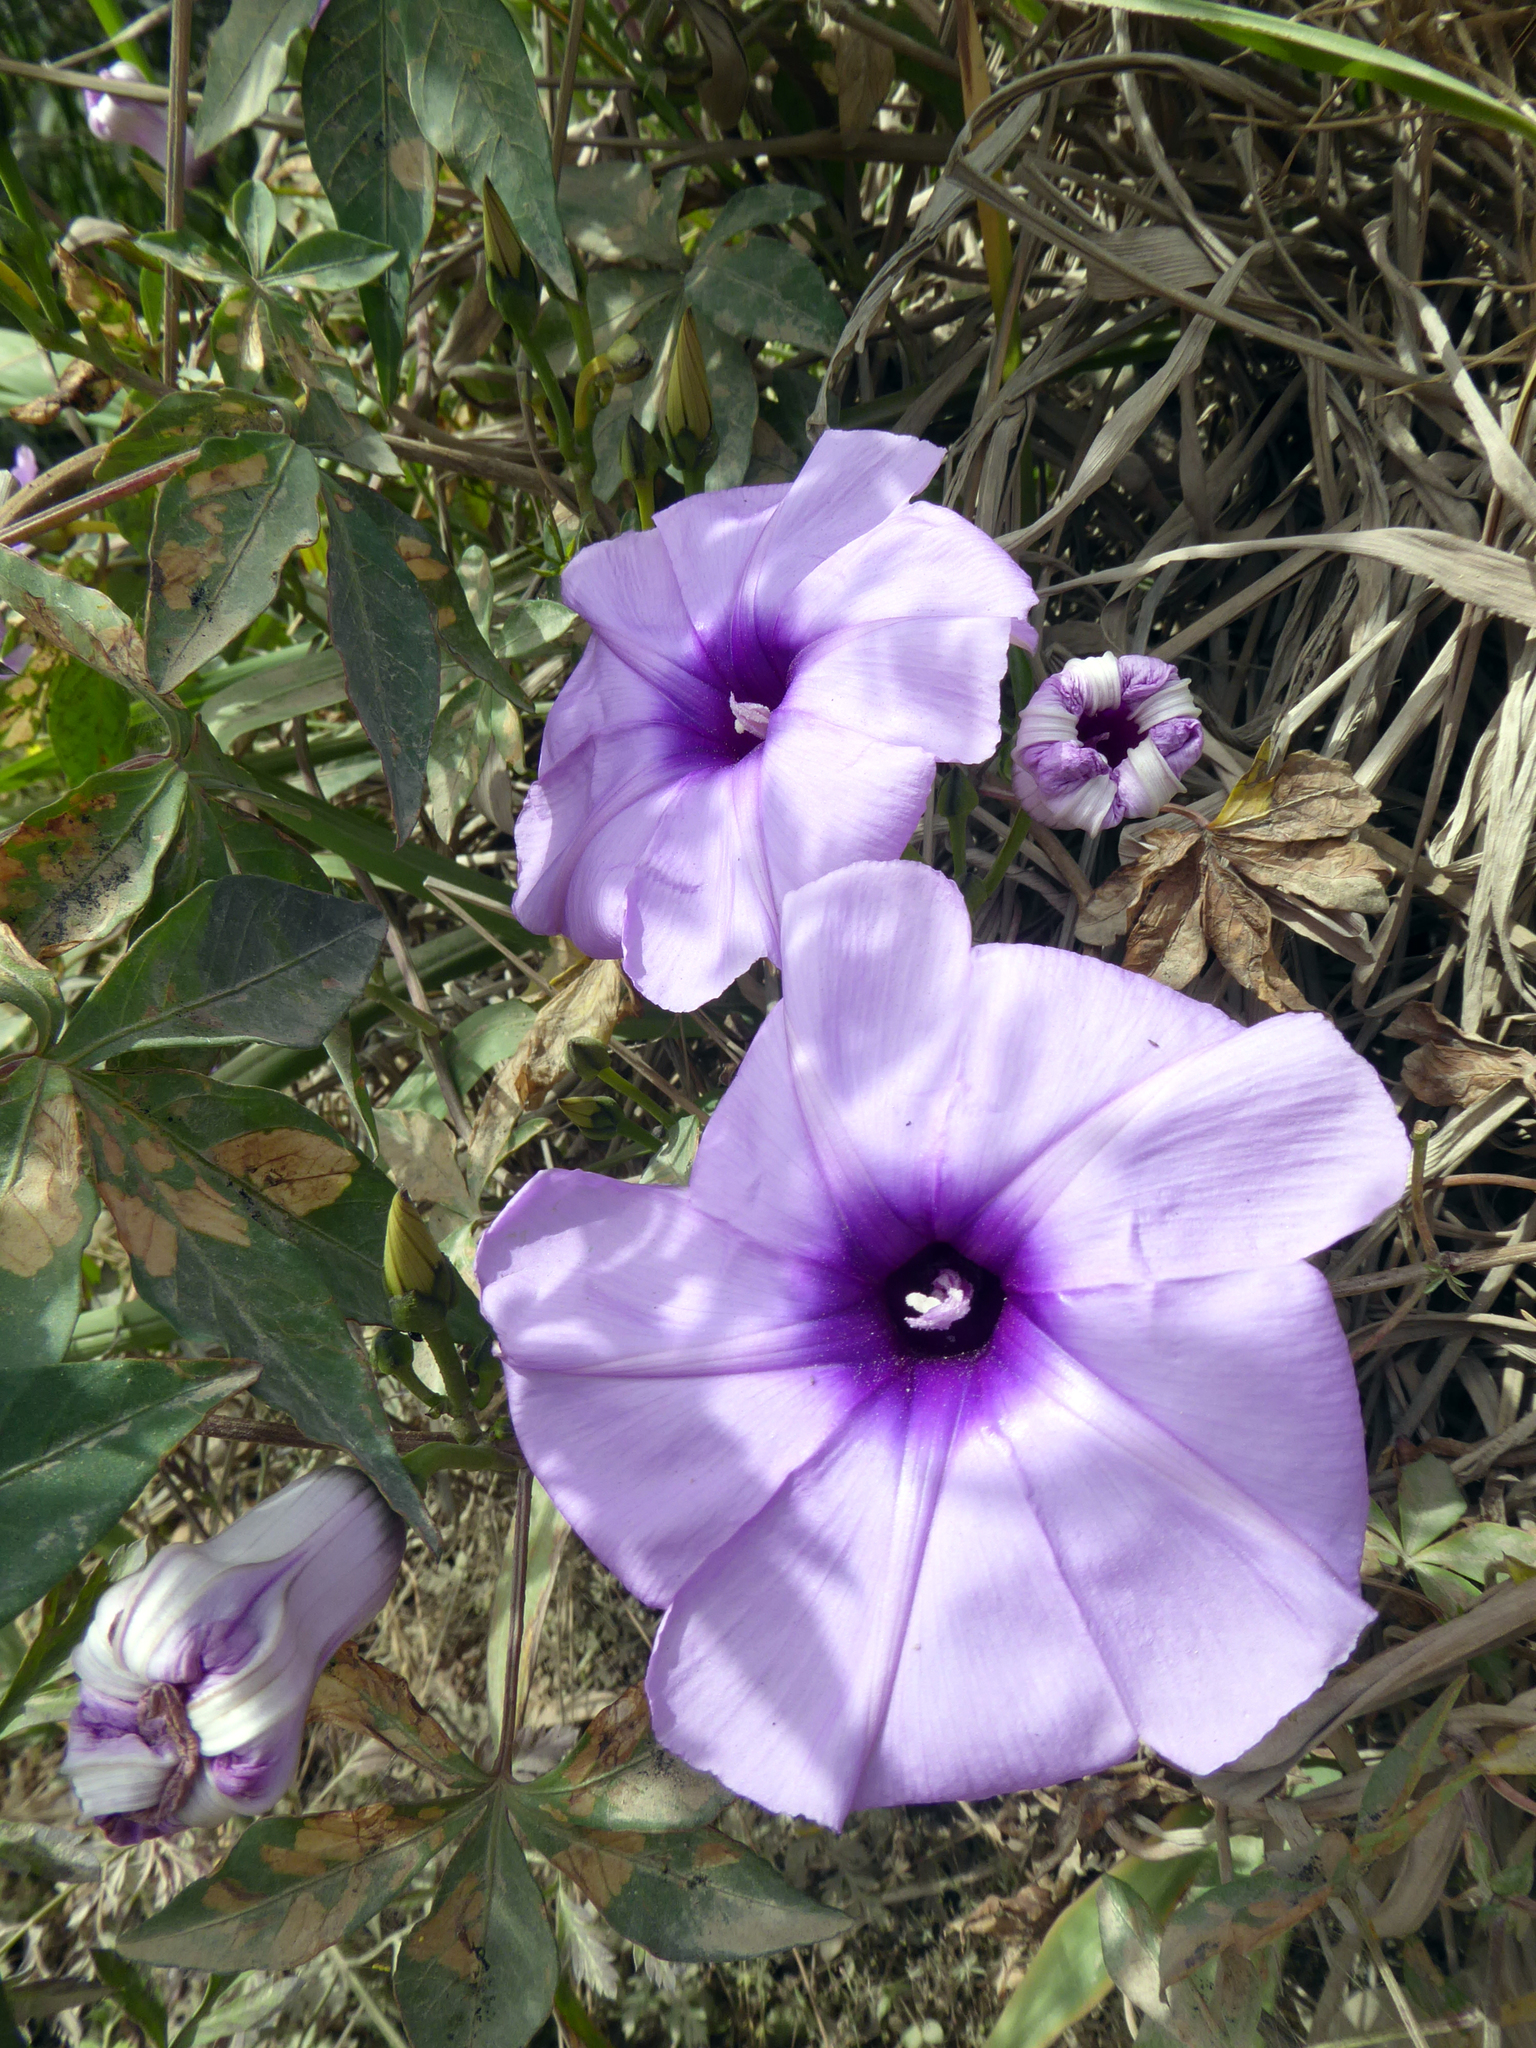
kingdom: Plantae
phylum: Tracheophyta
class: Magnoliopsida
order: Solanales
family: Convolvulaceae
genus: Ipomoea
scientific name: Ipomoea cairica
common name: Mile a minute vine
